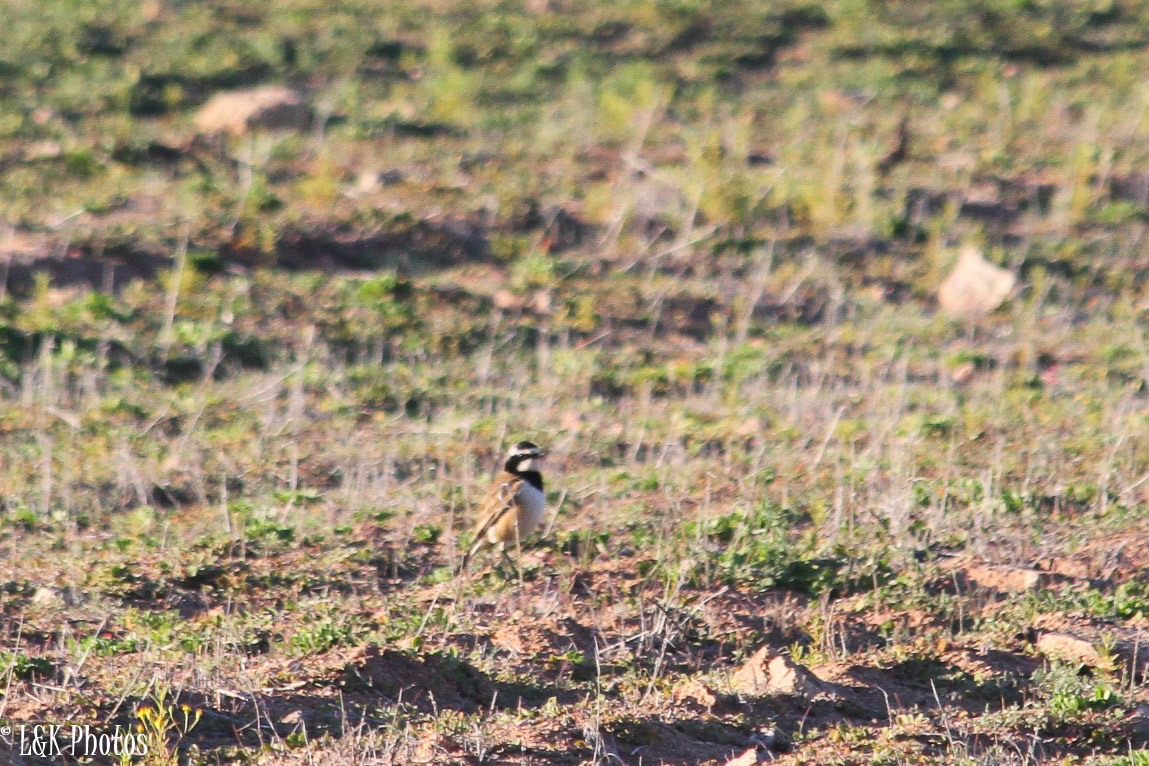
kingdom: Animalia
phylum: Chordata
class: Aves
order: Passeriformes
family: Muscicapidae
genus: Oenanthe
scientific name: Oenanthe pileata
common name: Capped wheatear
